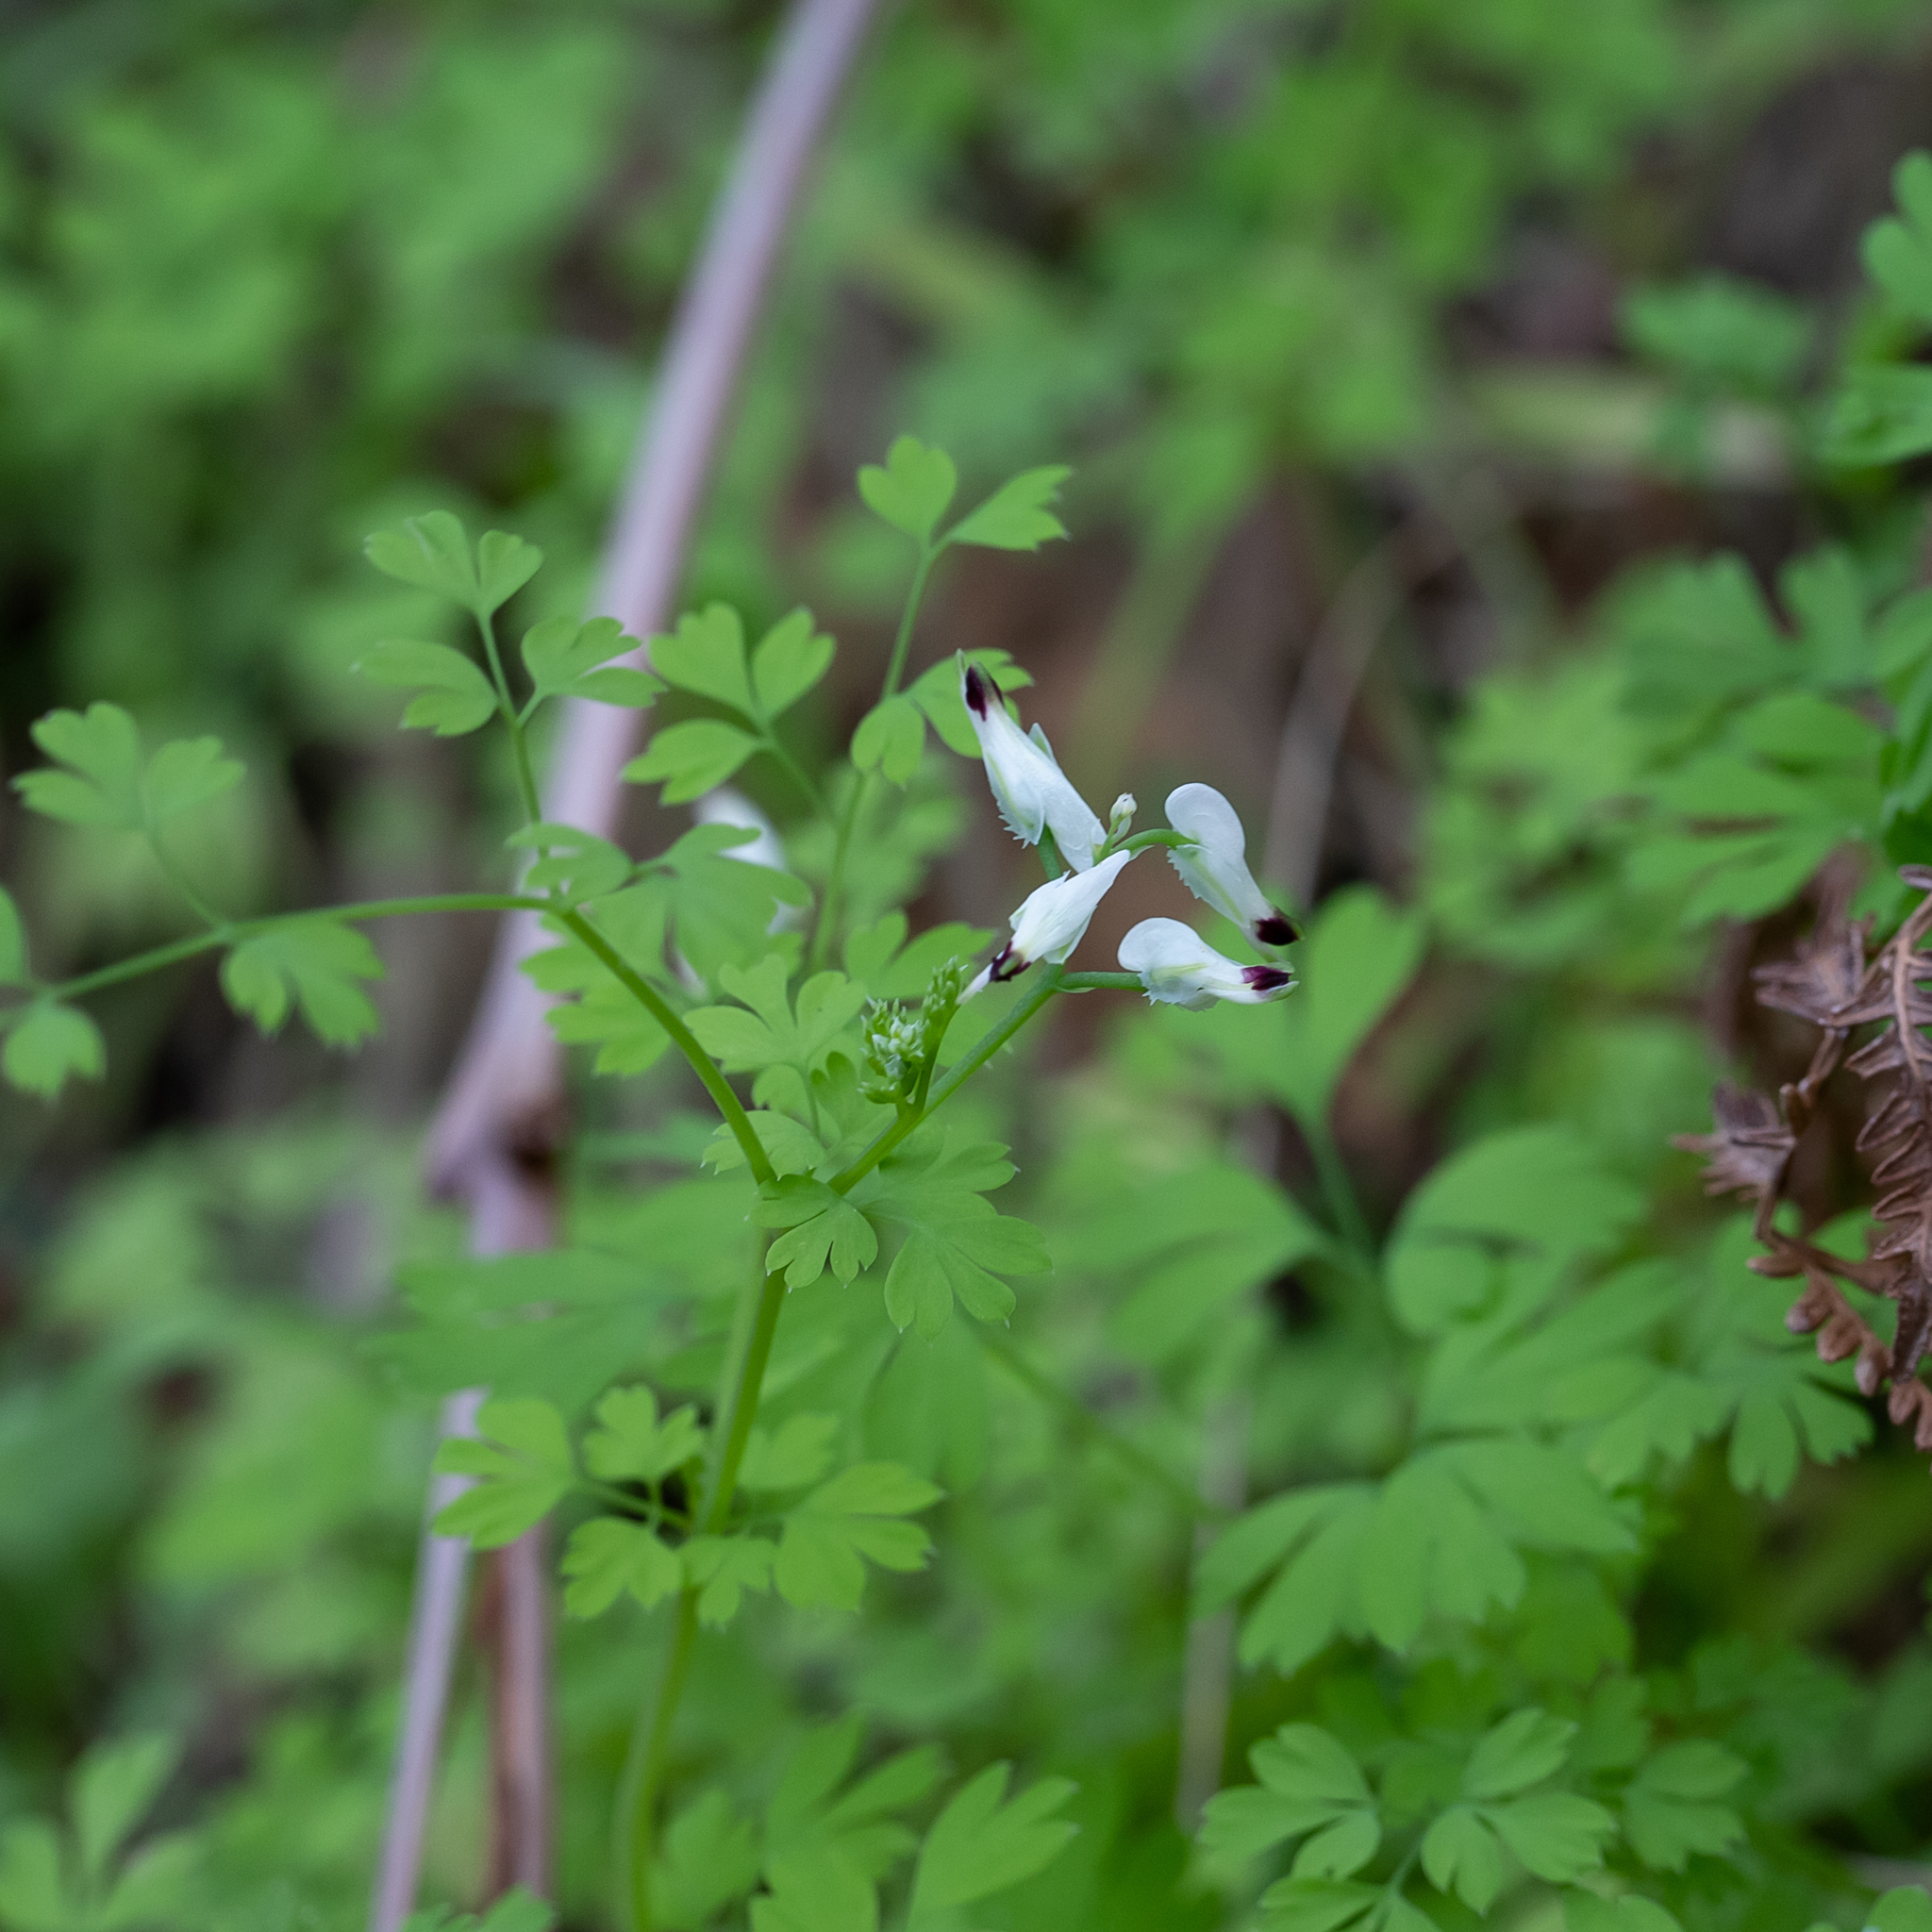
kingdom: Plantae
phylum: Tracheophyta
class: Magnoliopsida
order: Ranunculales
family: Papaveraceae
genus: Fumaria
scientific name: Fumaria capreolata
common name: White ramping-fumitory
